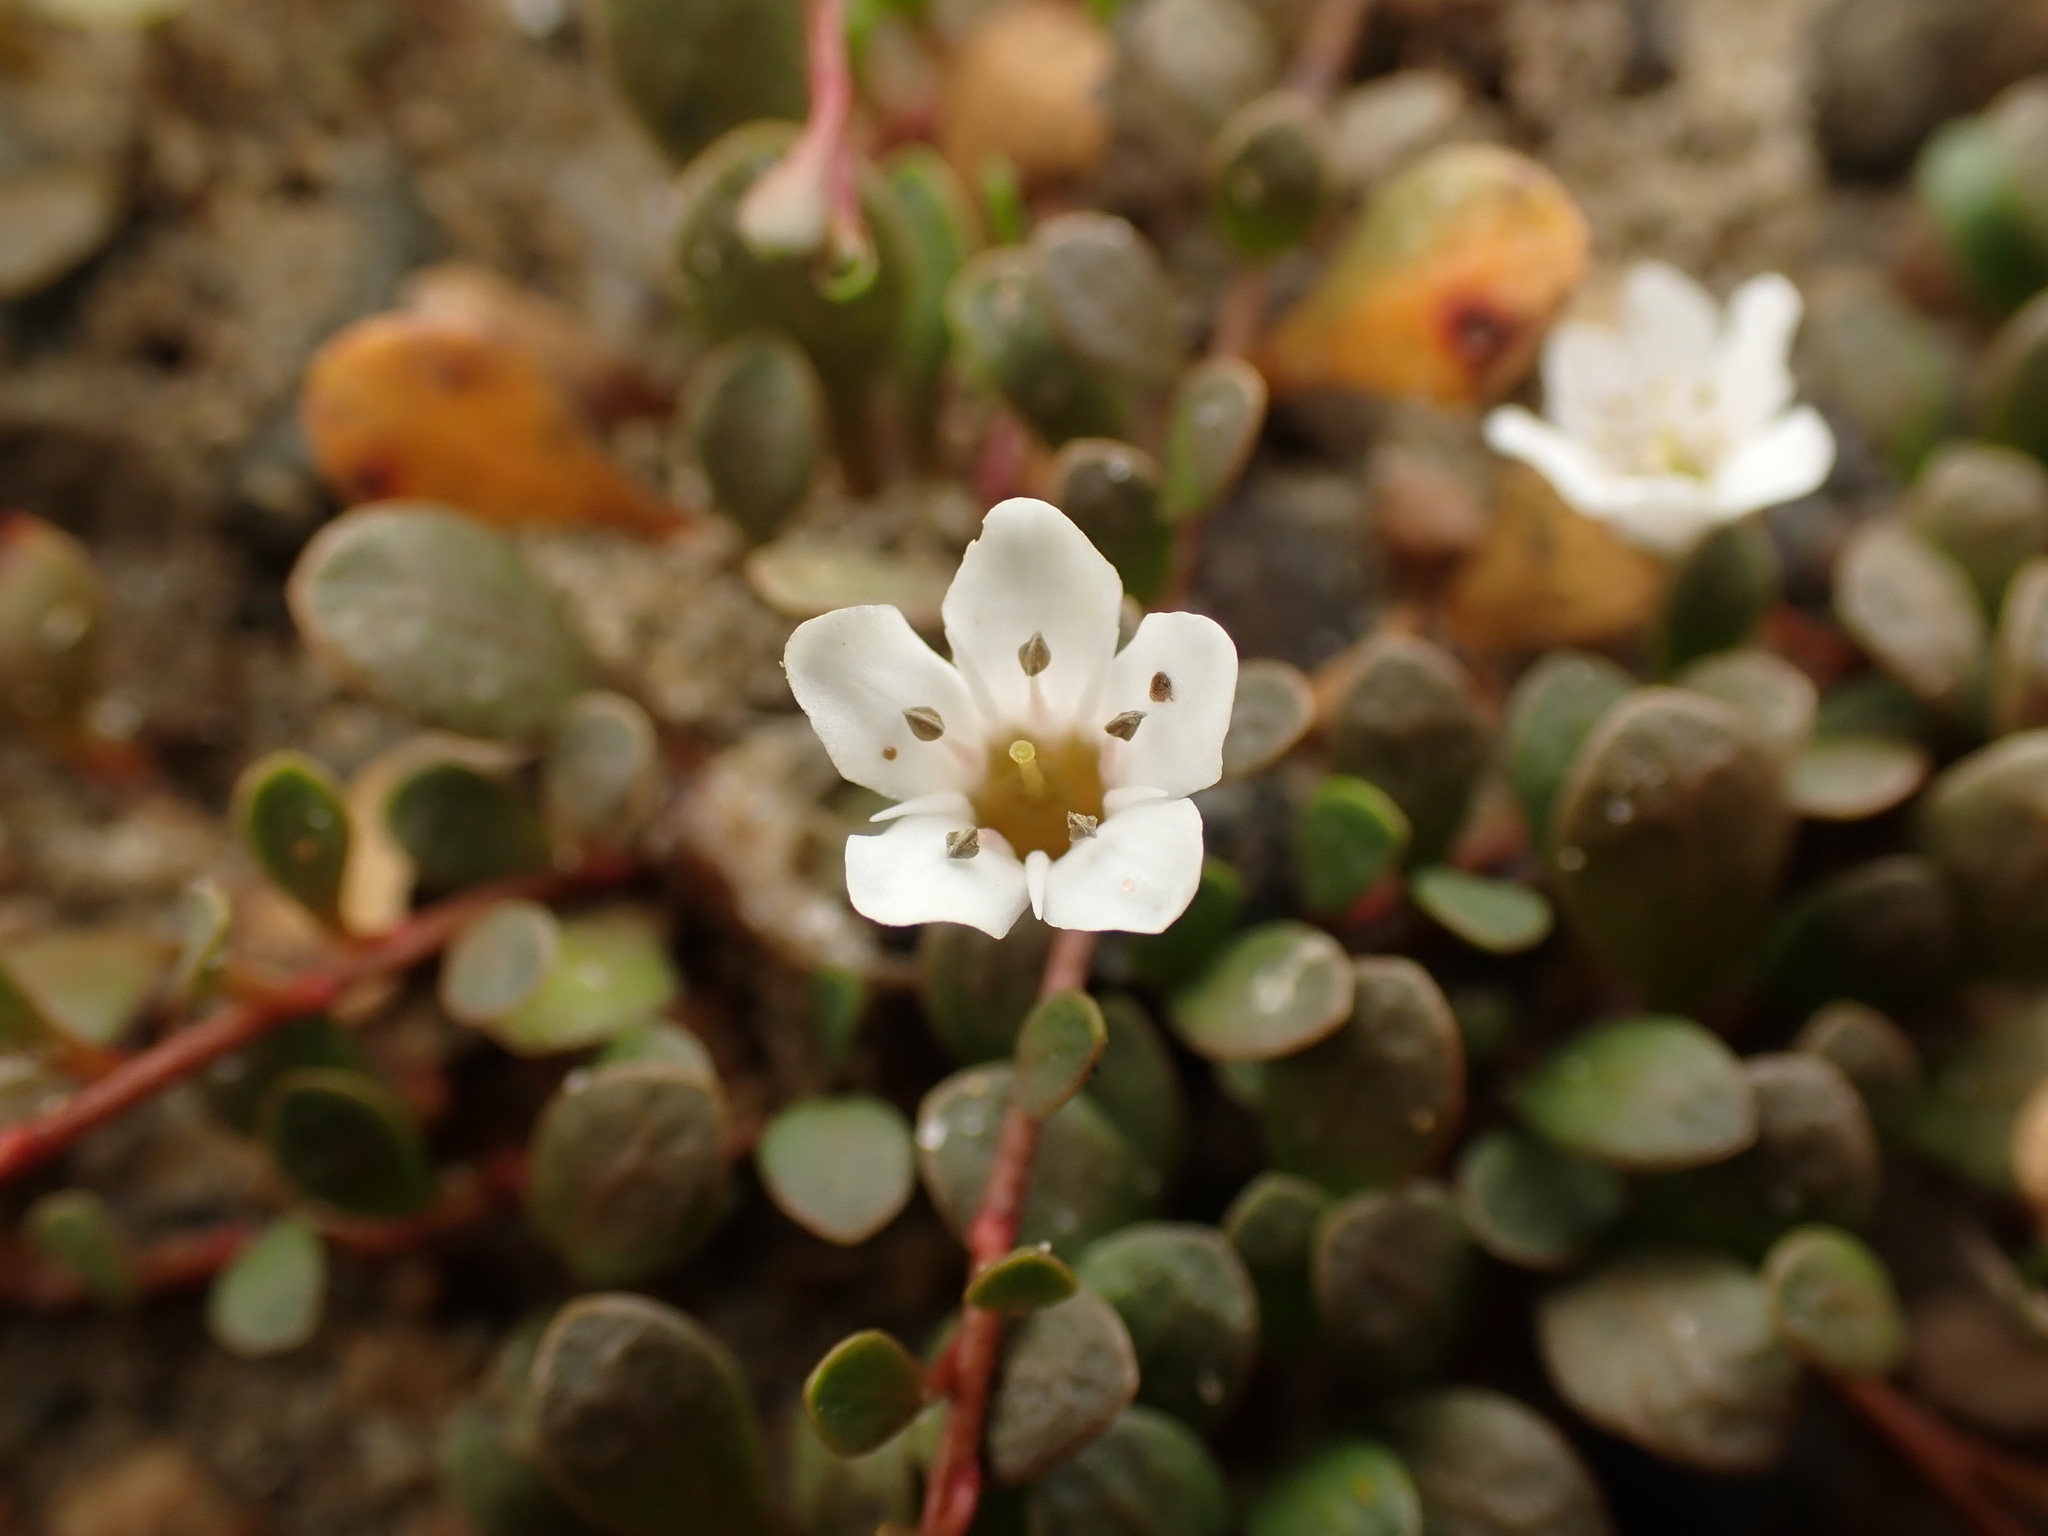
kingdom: Plantae
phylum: Tracheophyta
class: Magnoliopsida
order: Ericales
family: Primulaceae
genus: Samolus
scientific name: Samolus repens
